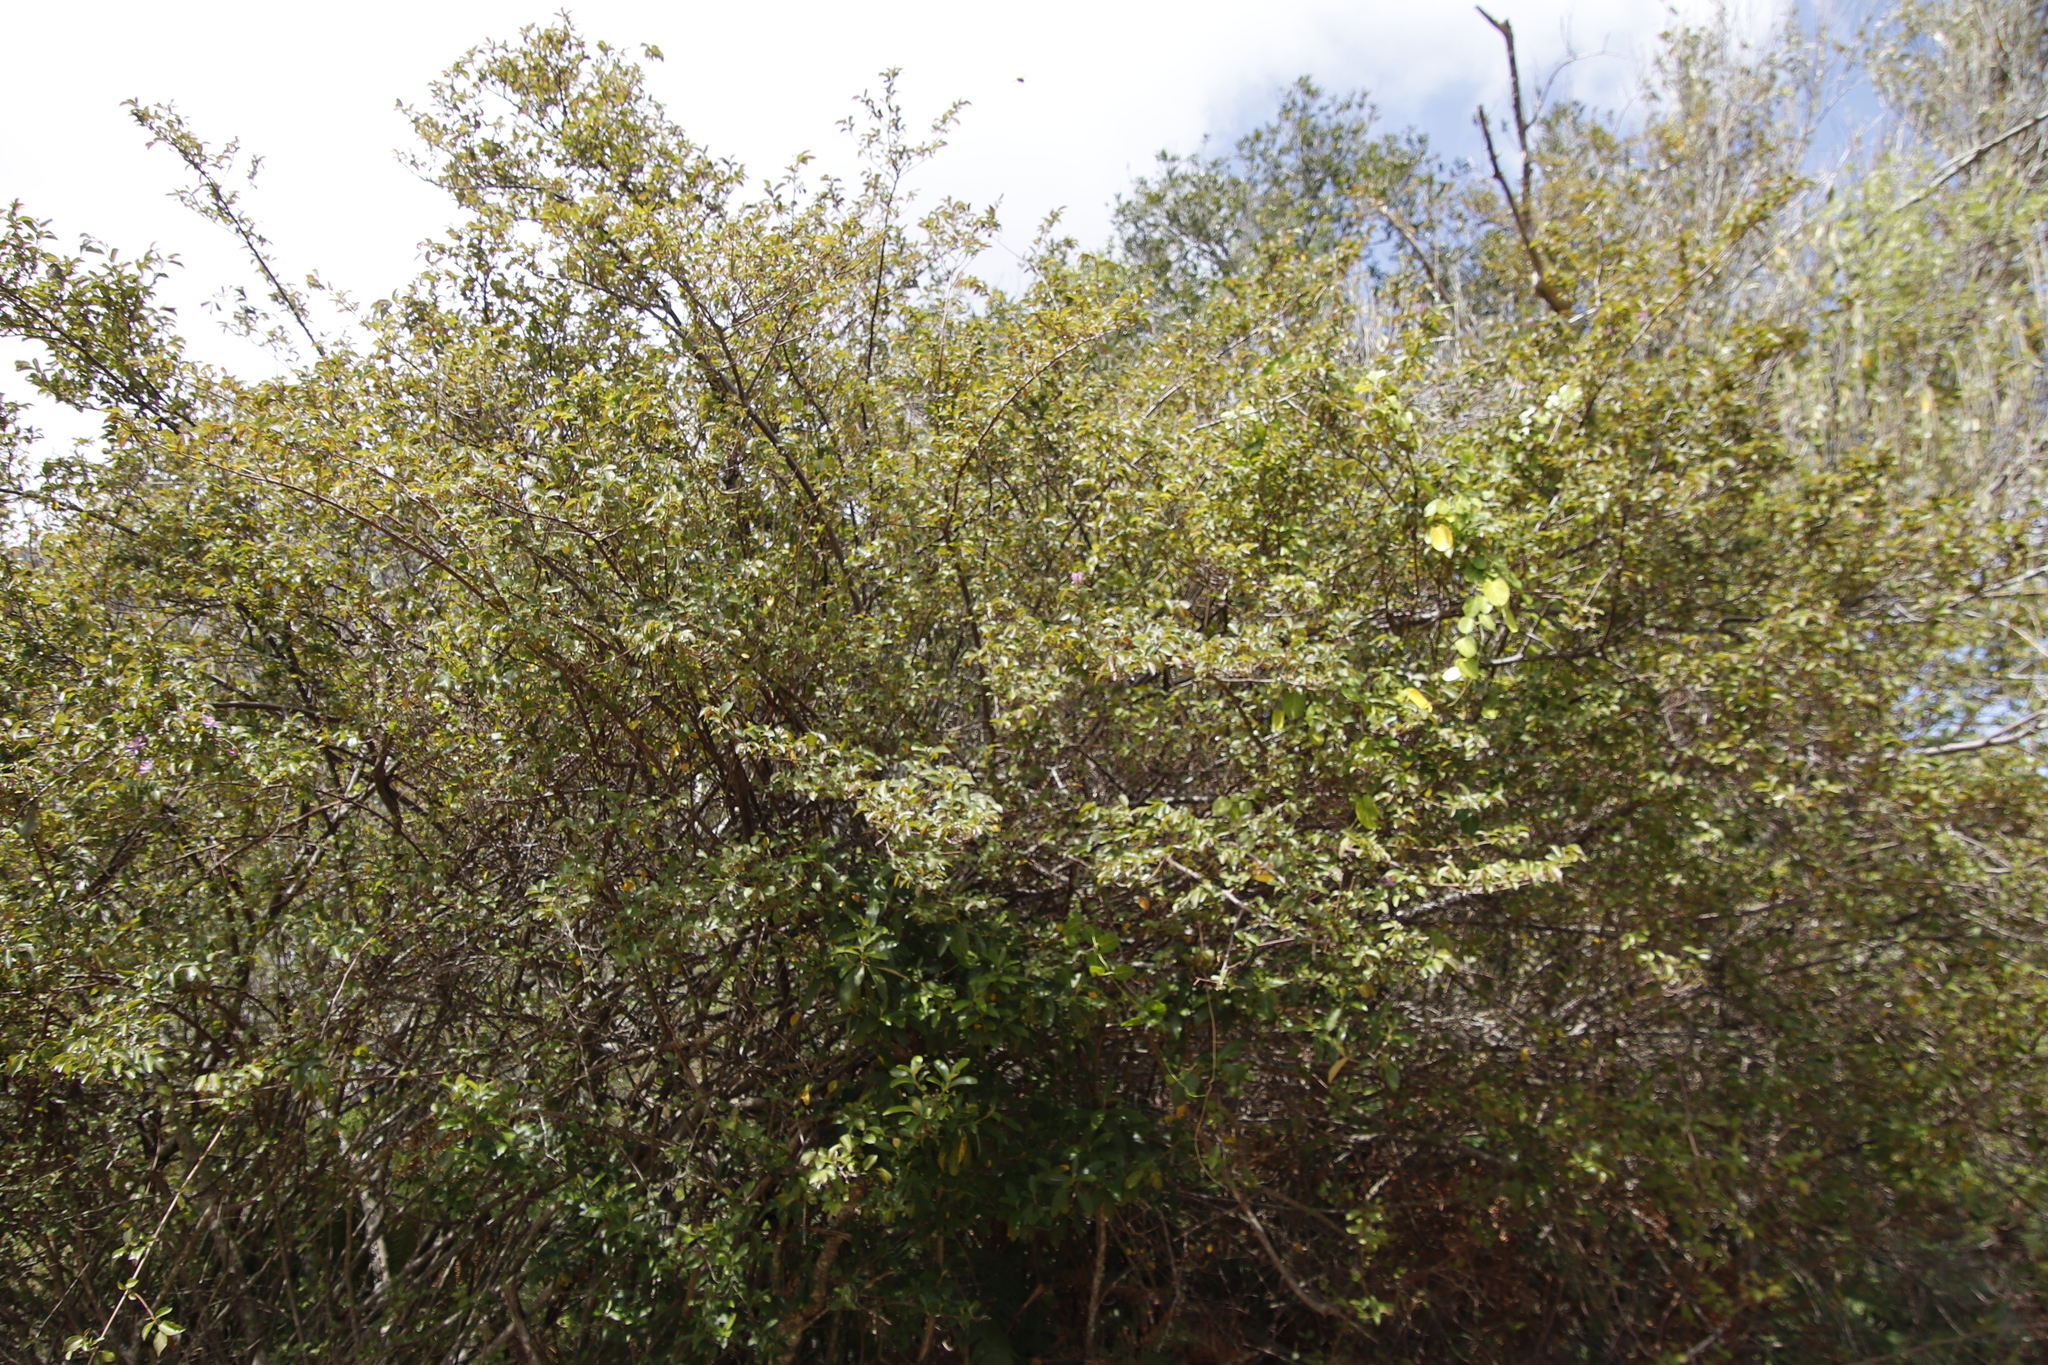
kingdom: Plantae
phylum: Tracheophyta
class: Magnoliopsida
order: Malvales
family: Malvaceae
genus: Grewia
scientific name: Grewia occidentalis
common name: Crossberry
